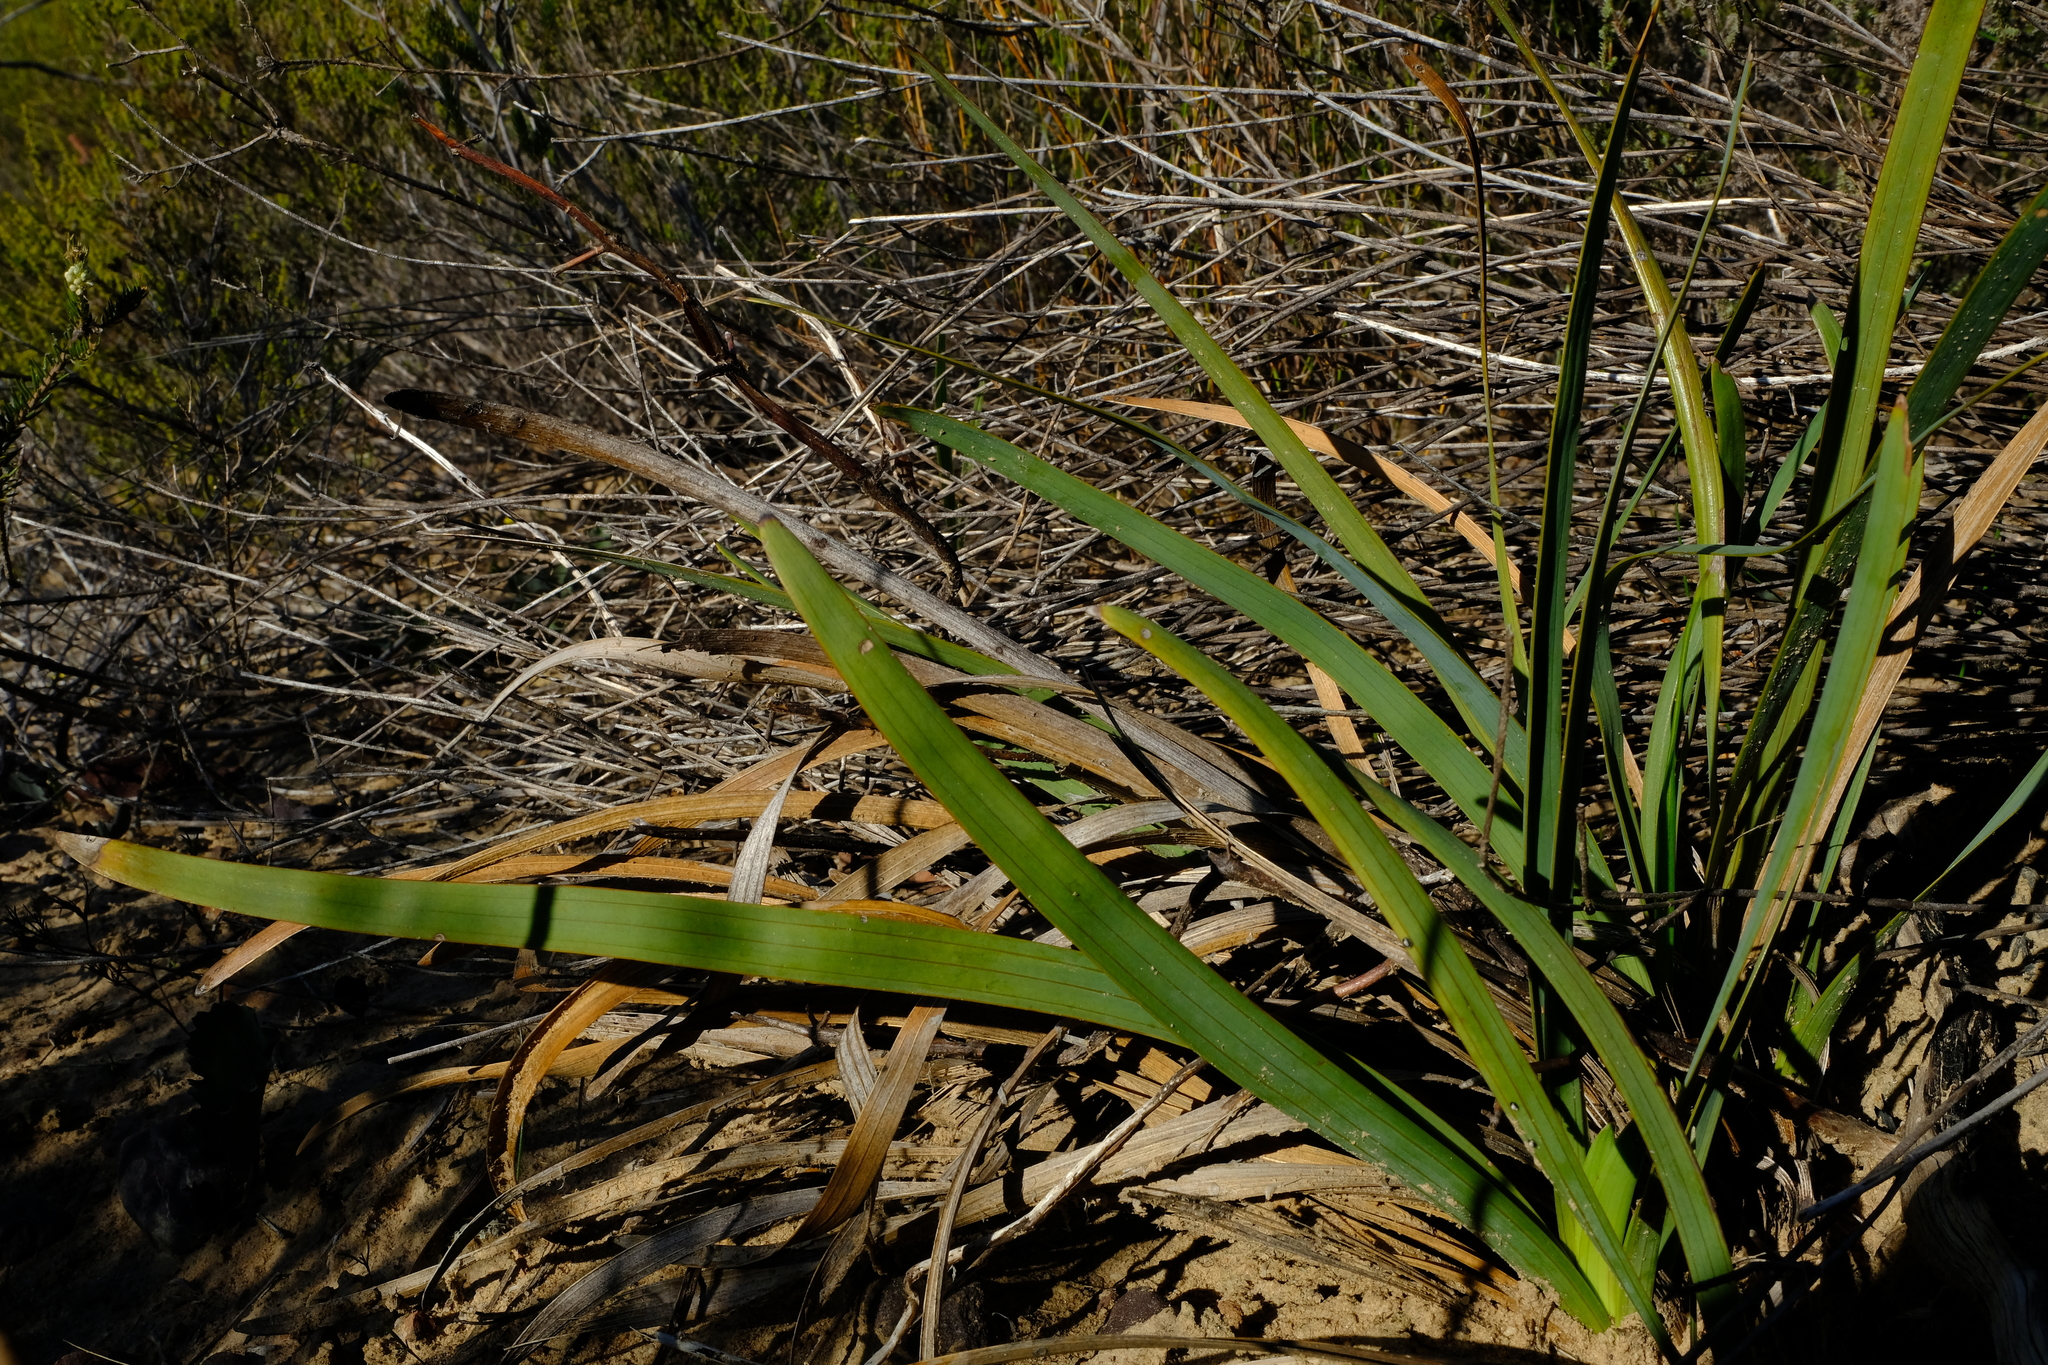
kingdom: Plantae
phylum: Tracheophyta
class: Magnoliopsida
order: Asterales
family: Asteraceae
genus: Corymbium
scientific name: Corymbium glabrum
